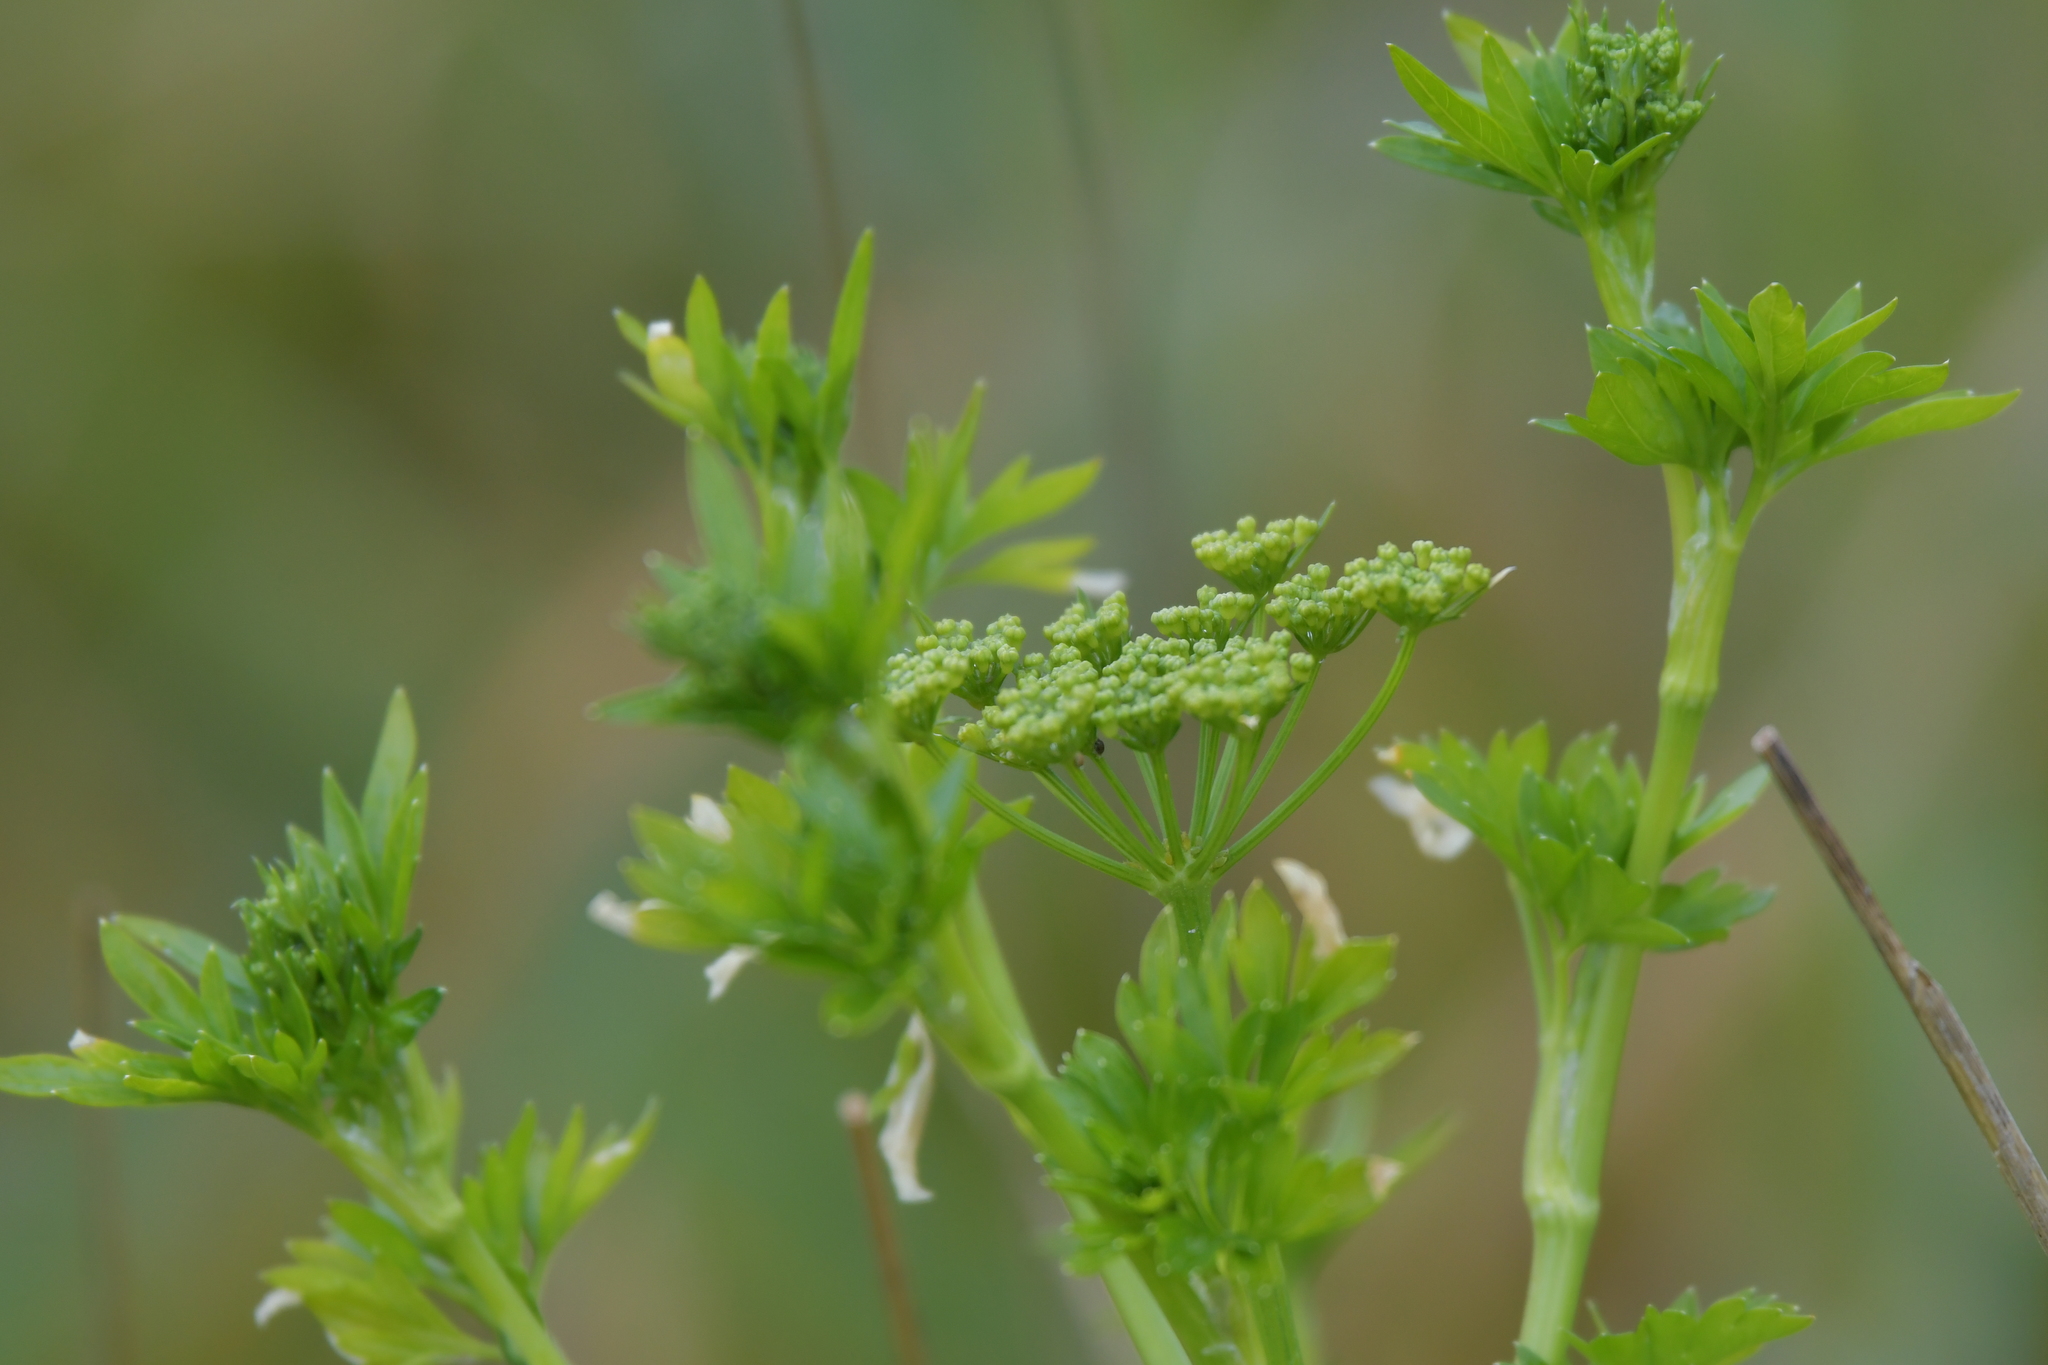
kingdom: Plantae
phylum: Tracheophyta
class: Magnoliopsida
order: Apiales
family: Apiaceae
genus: Petroselinum
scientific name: Petroselinum crispum
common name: Parsley
